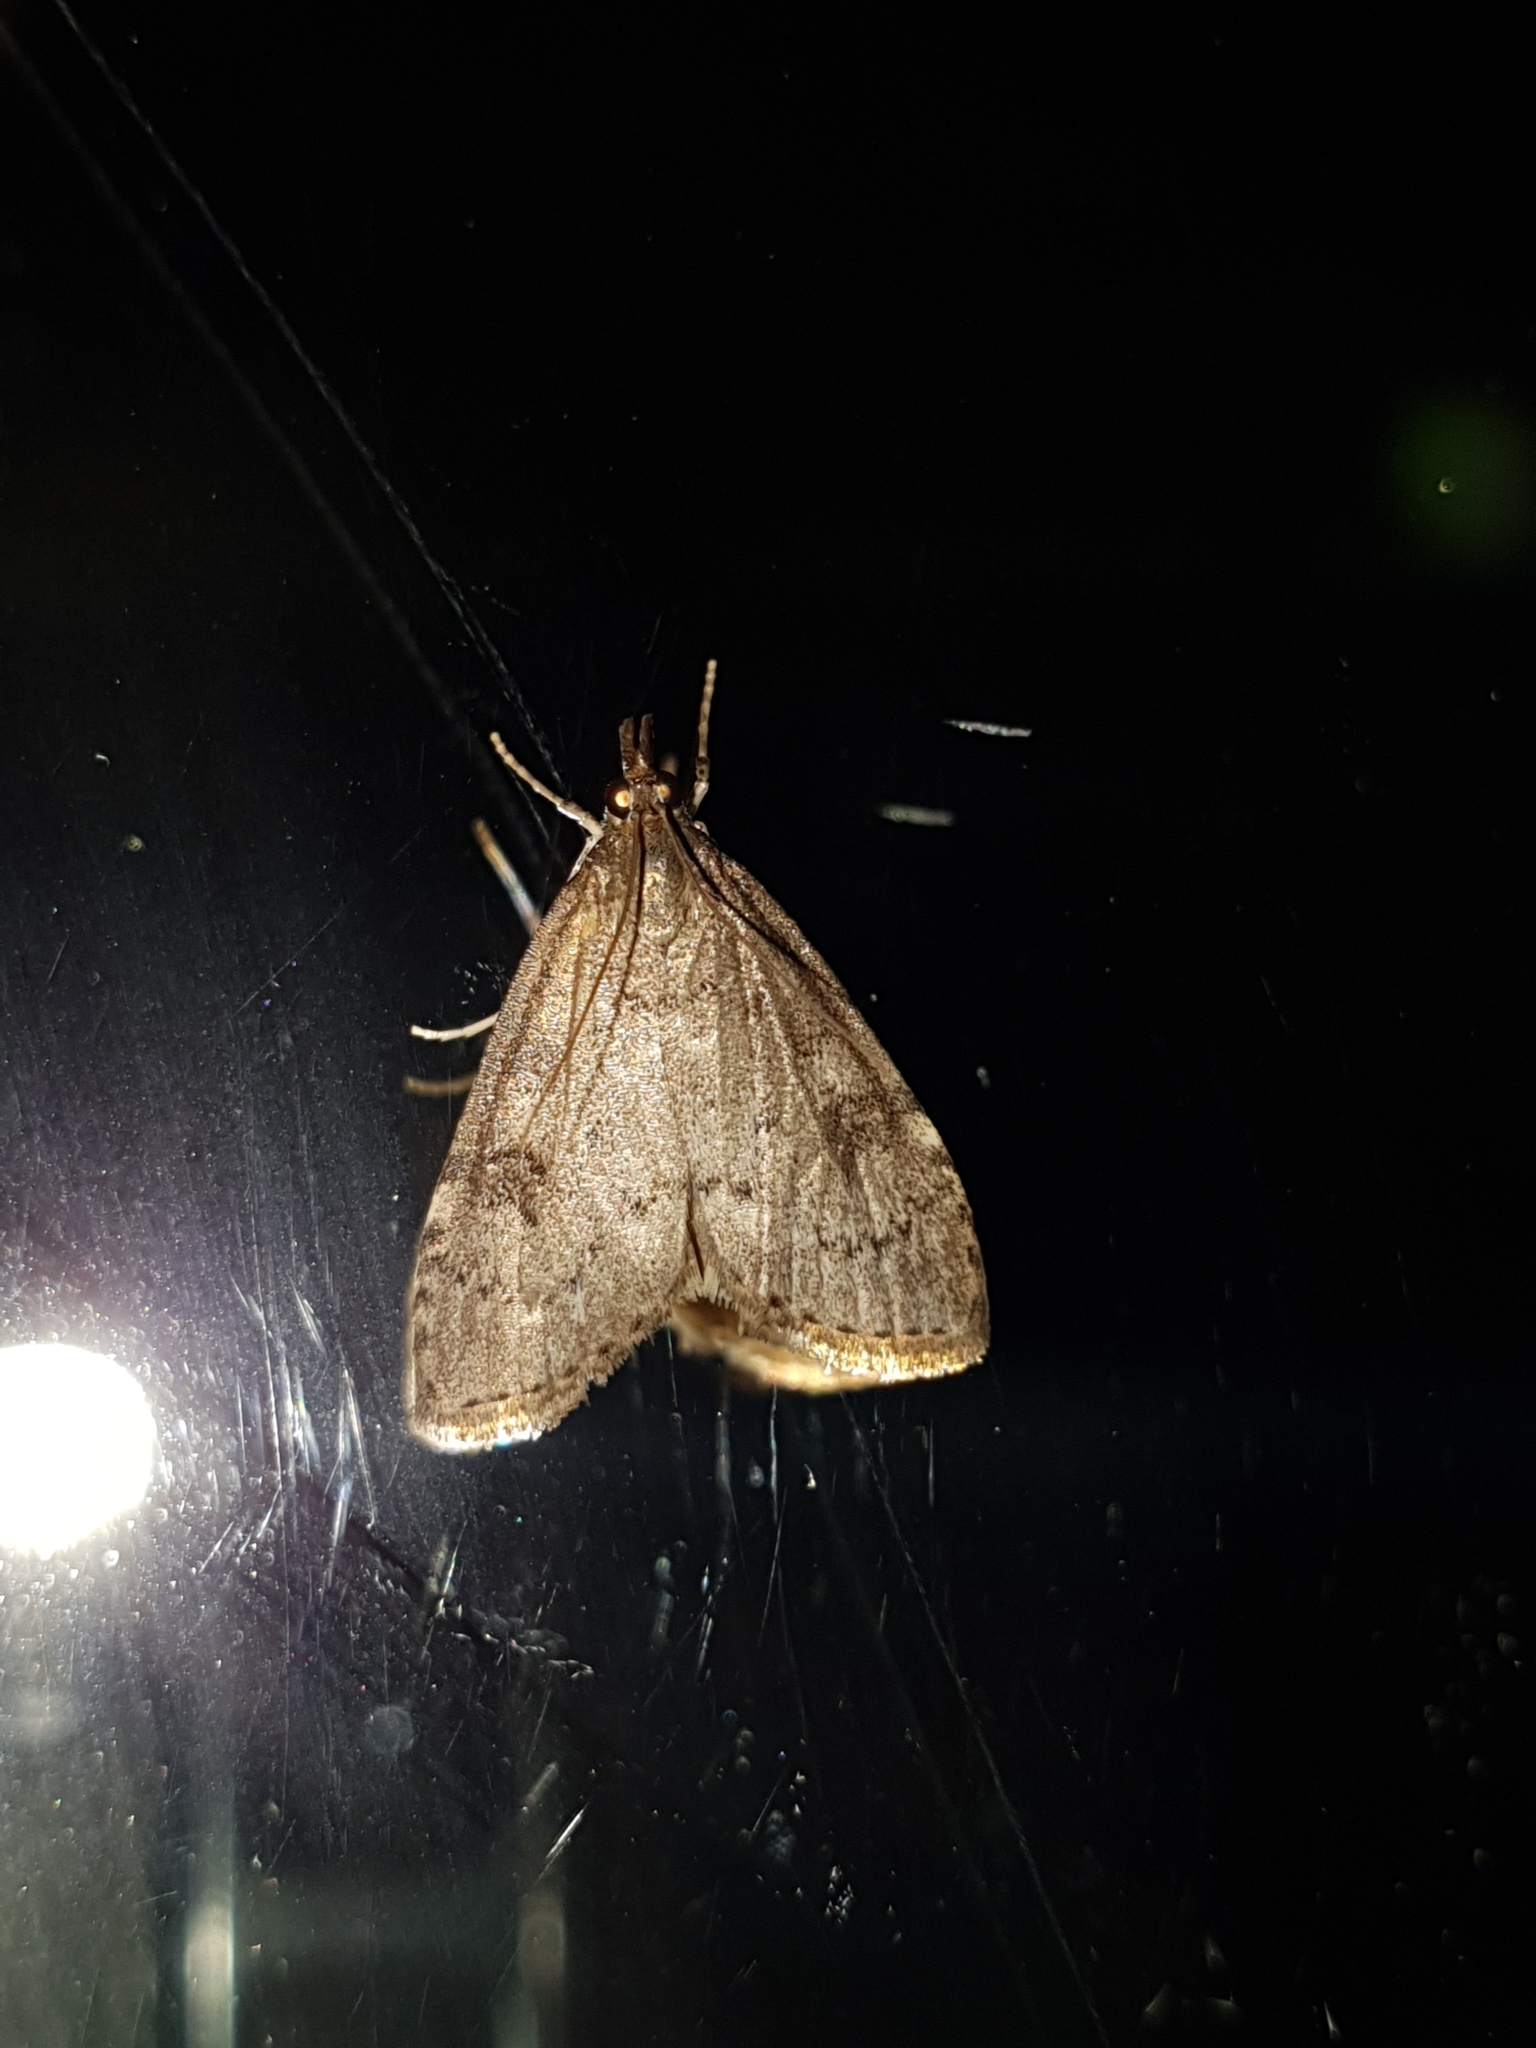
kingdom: Animalia
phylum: Arthropoda
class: Insecta
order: Lepidoptera
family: Crambidae
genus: Udea
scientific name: Udea prunalis
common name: Dusky pearl
